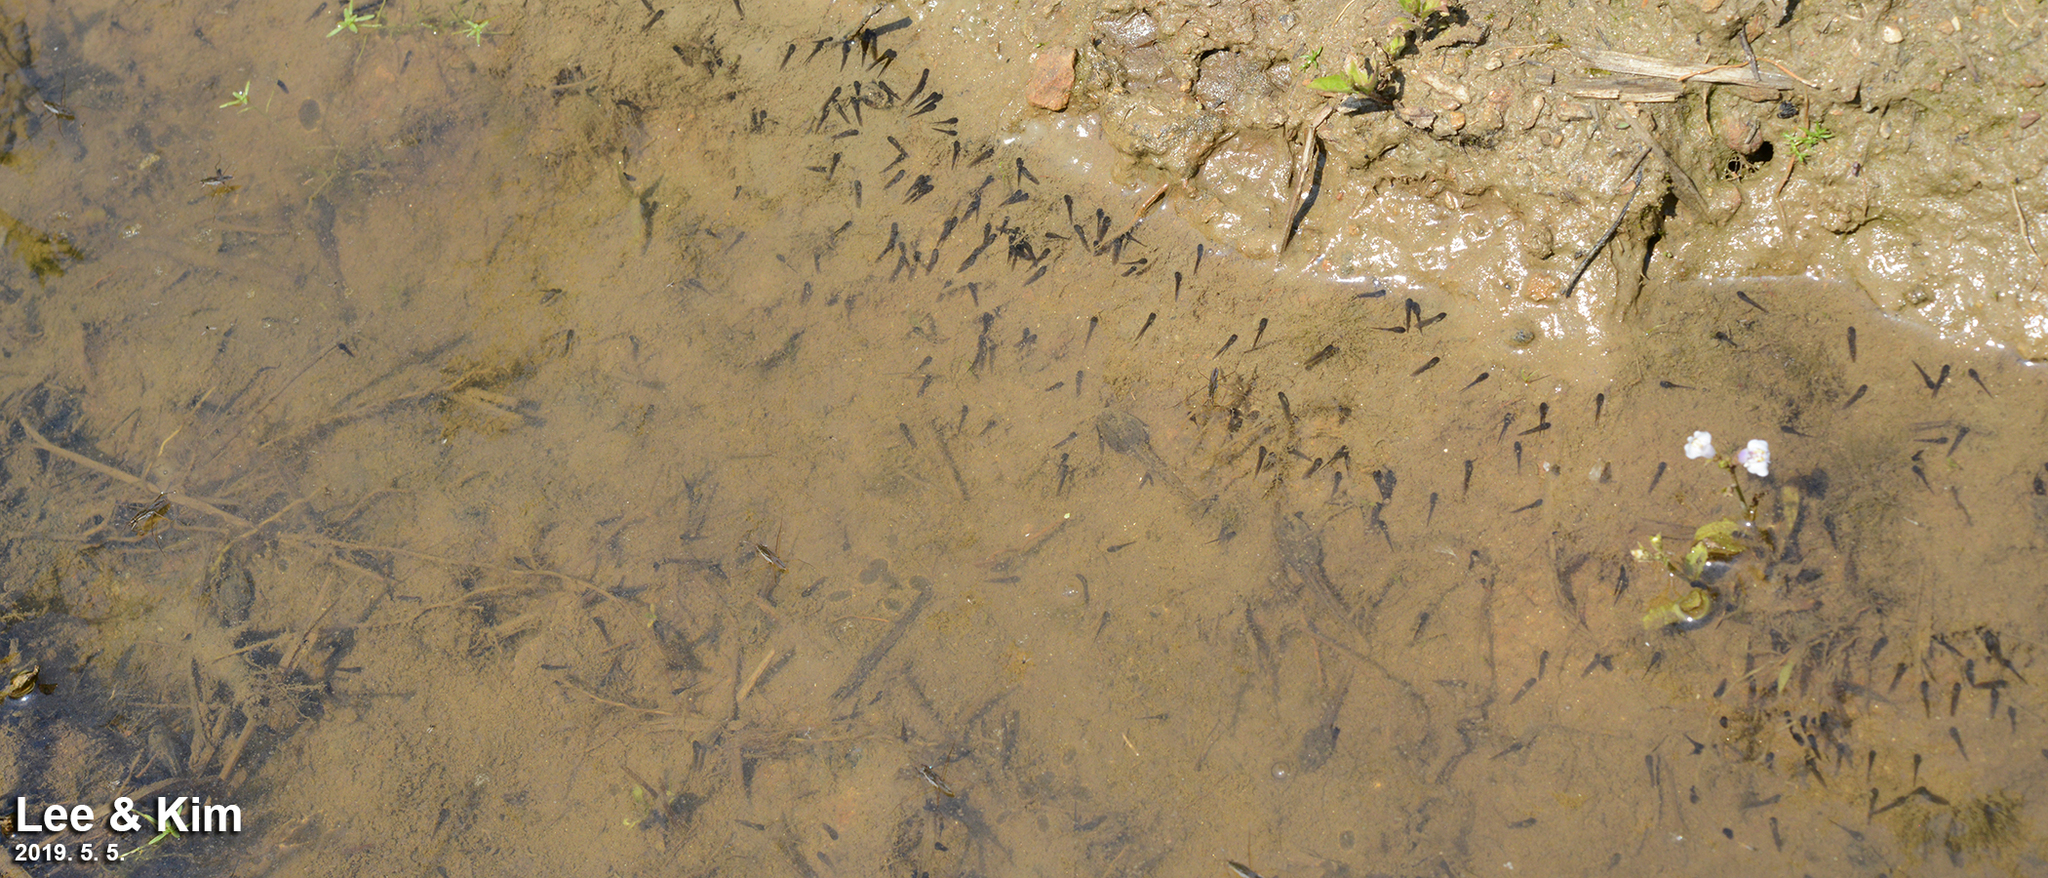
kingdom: Animalia
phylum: Chordata
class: Amphibia
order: Anura
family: Ranidae
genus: Pelophylax
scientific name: Pelophylax nigromaculatus
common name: Black-spotted pond frog
